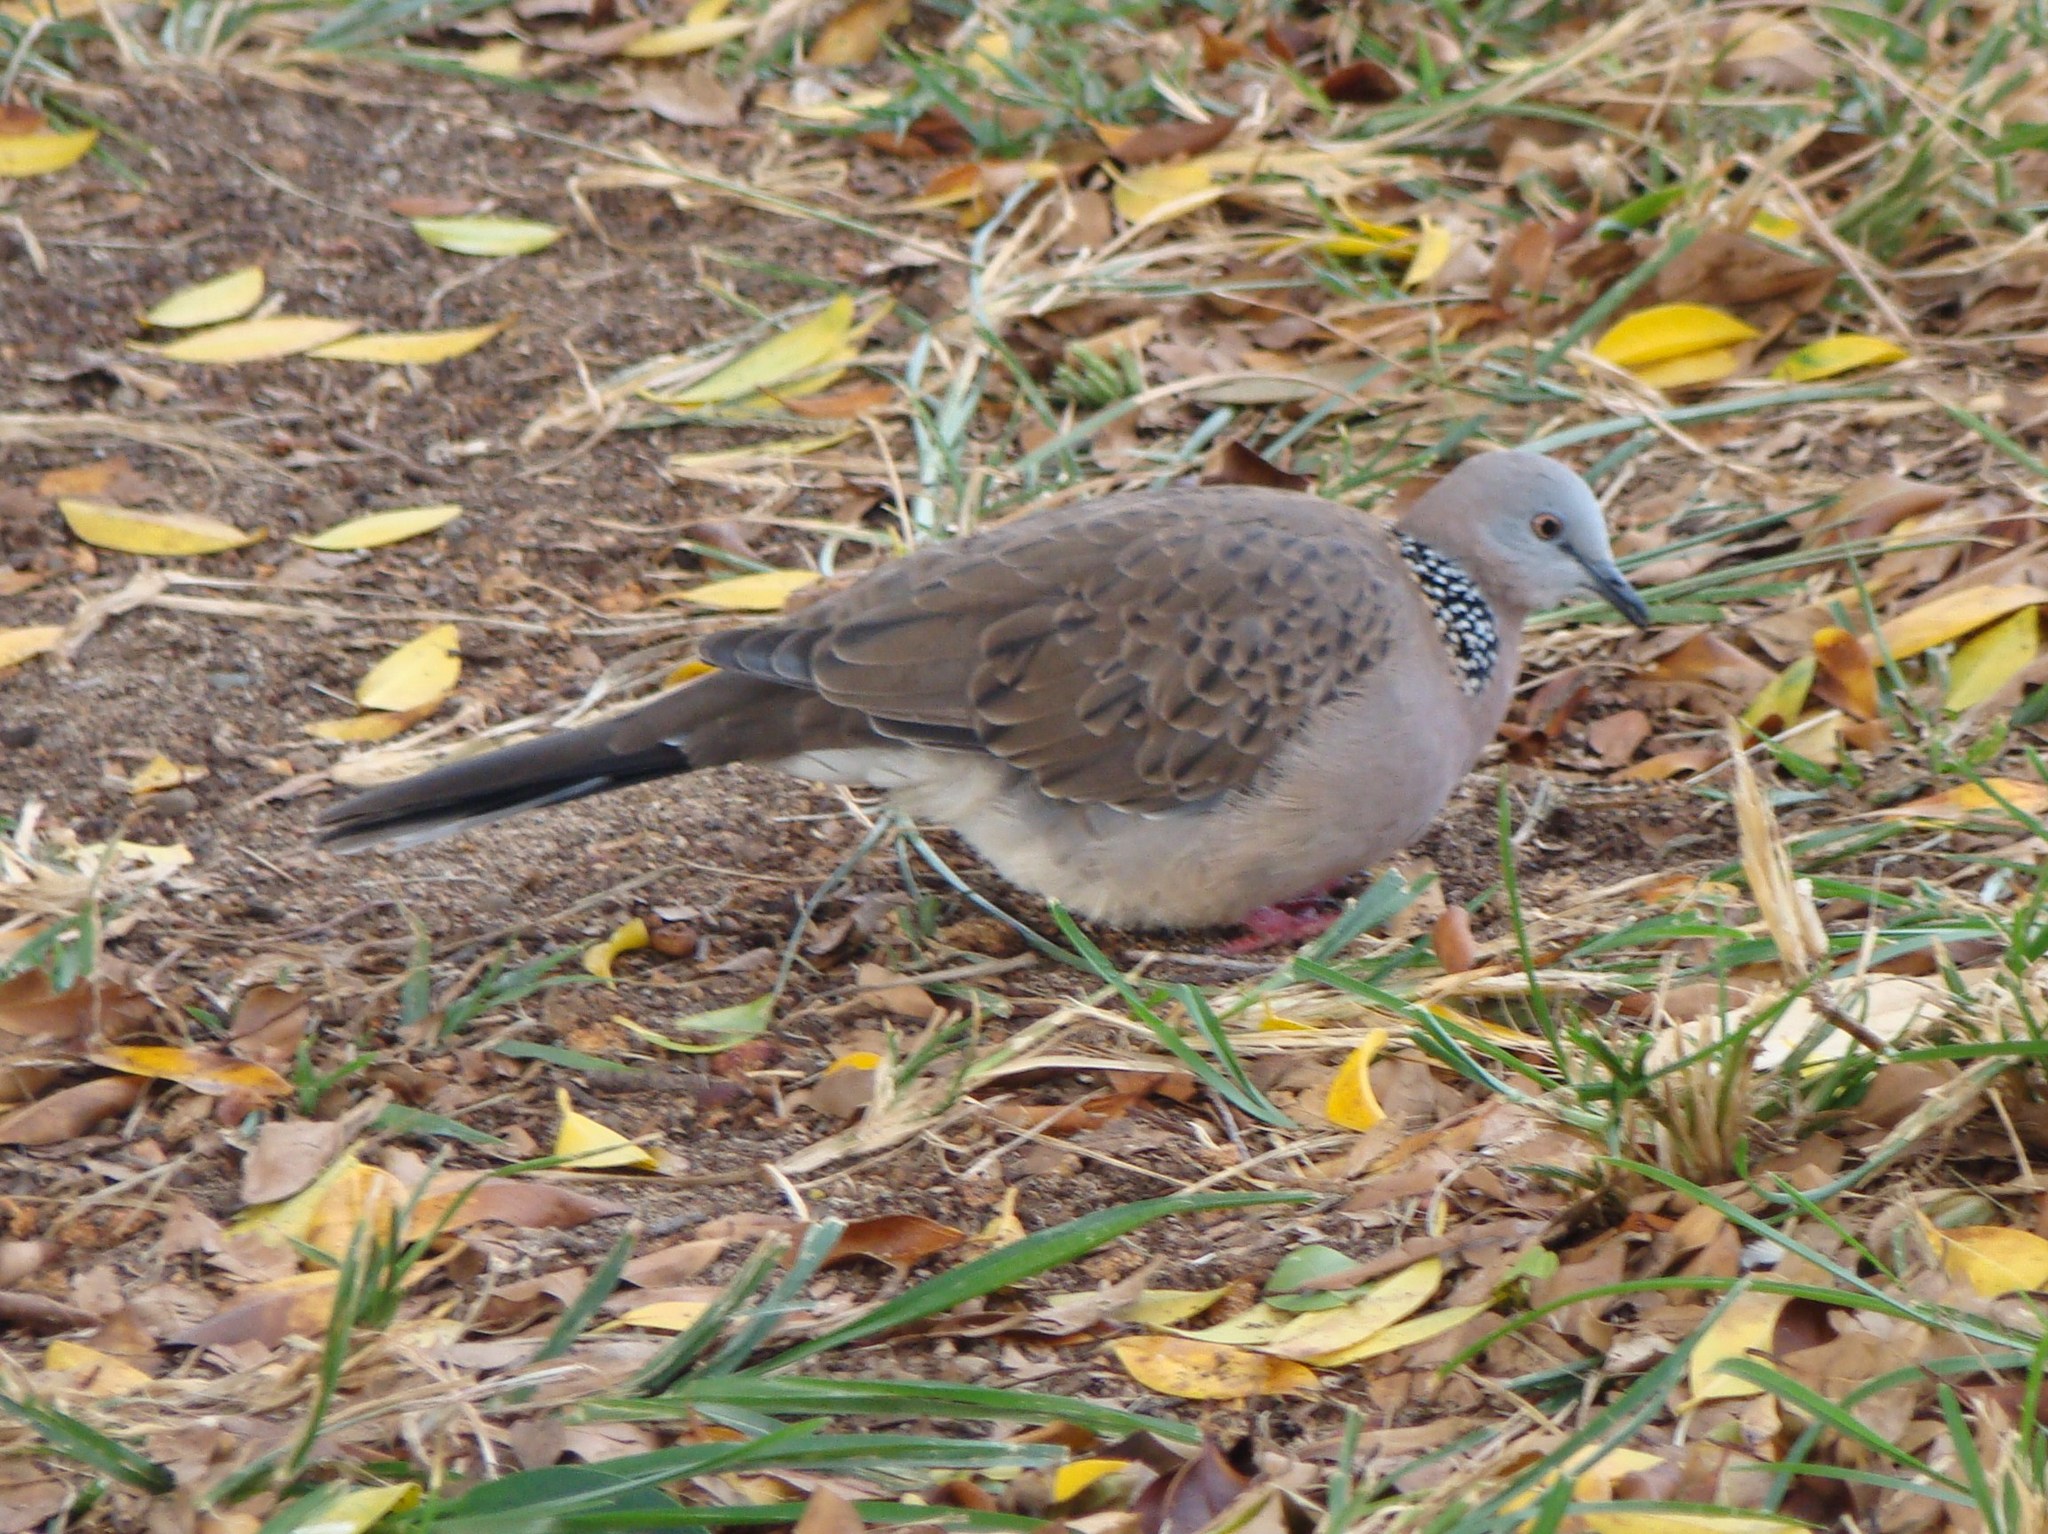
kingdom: Animalia
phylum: Chordata
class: Aves
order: Columbiformes
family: Columbidae
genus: Spilopelia
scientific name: Spilopelia chinensis
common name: Spotted dove
